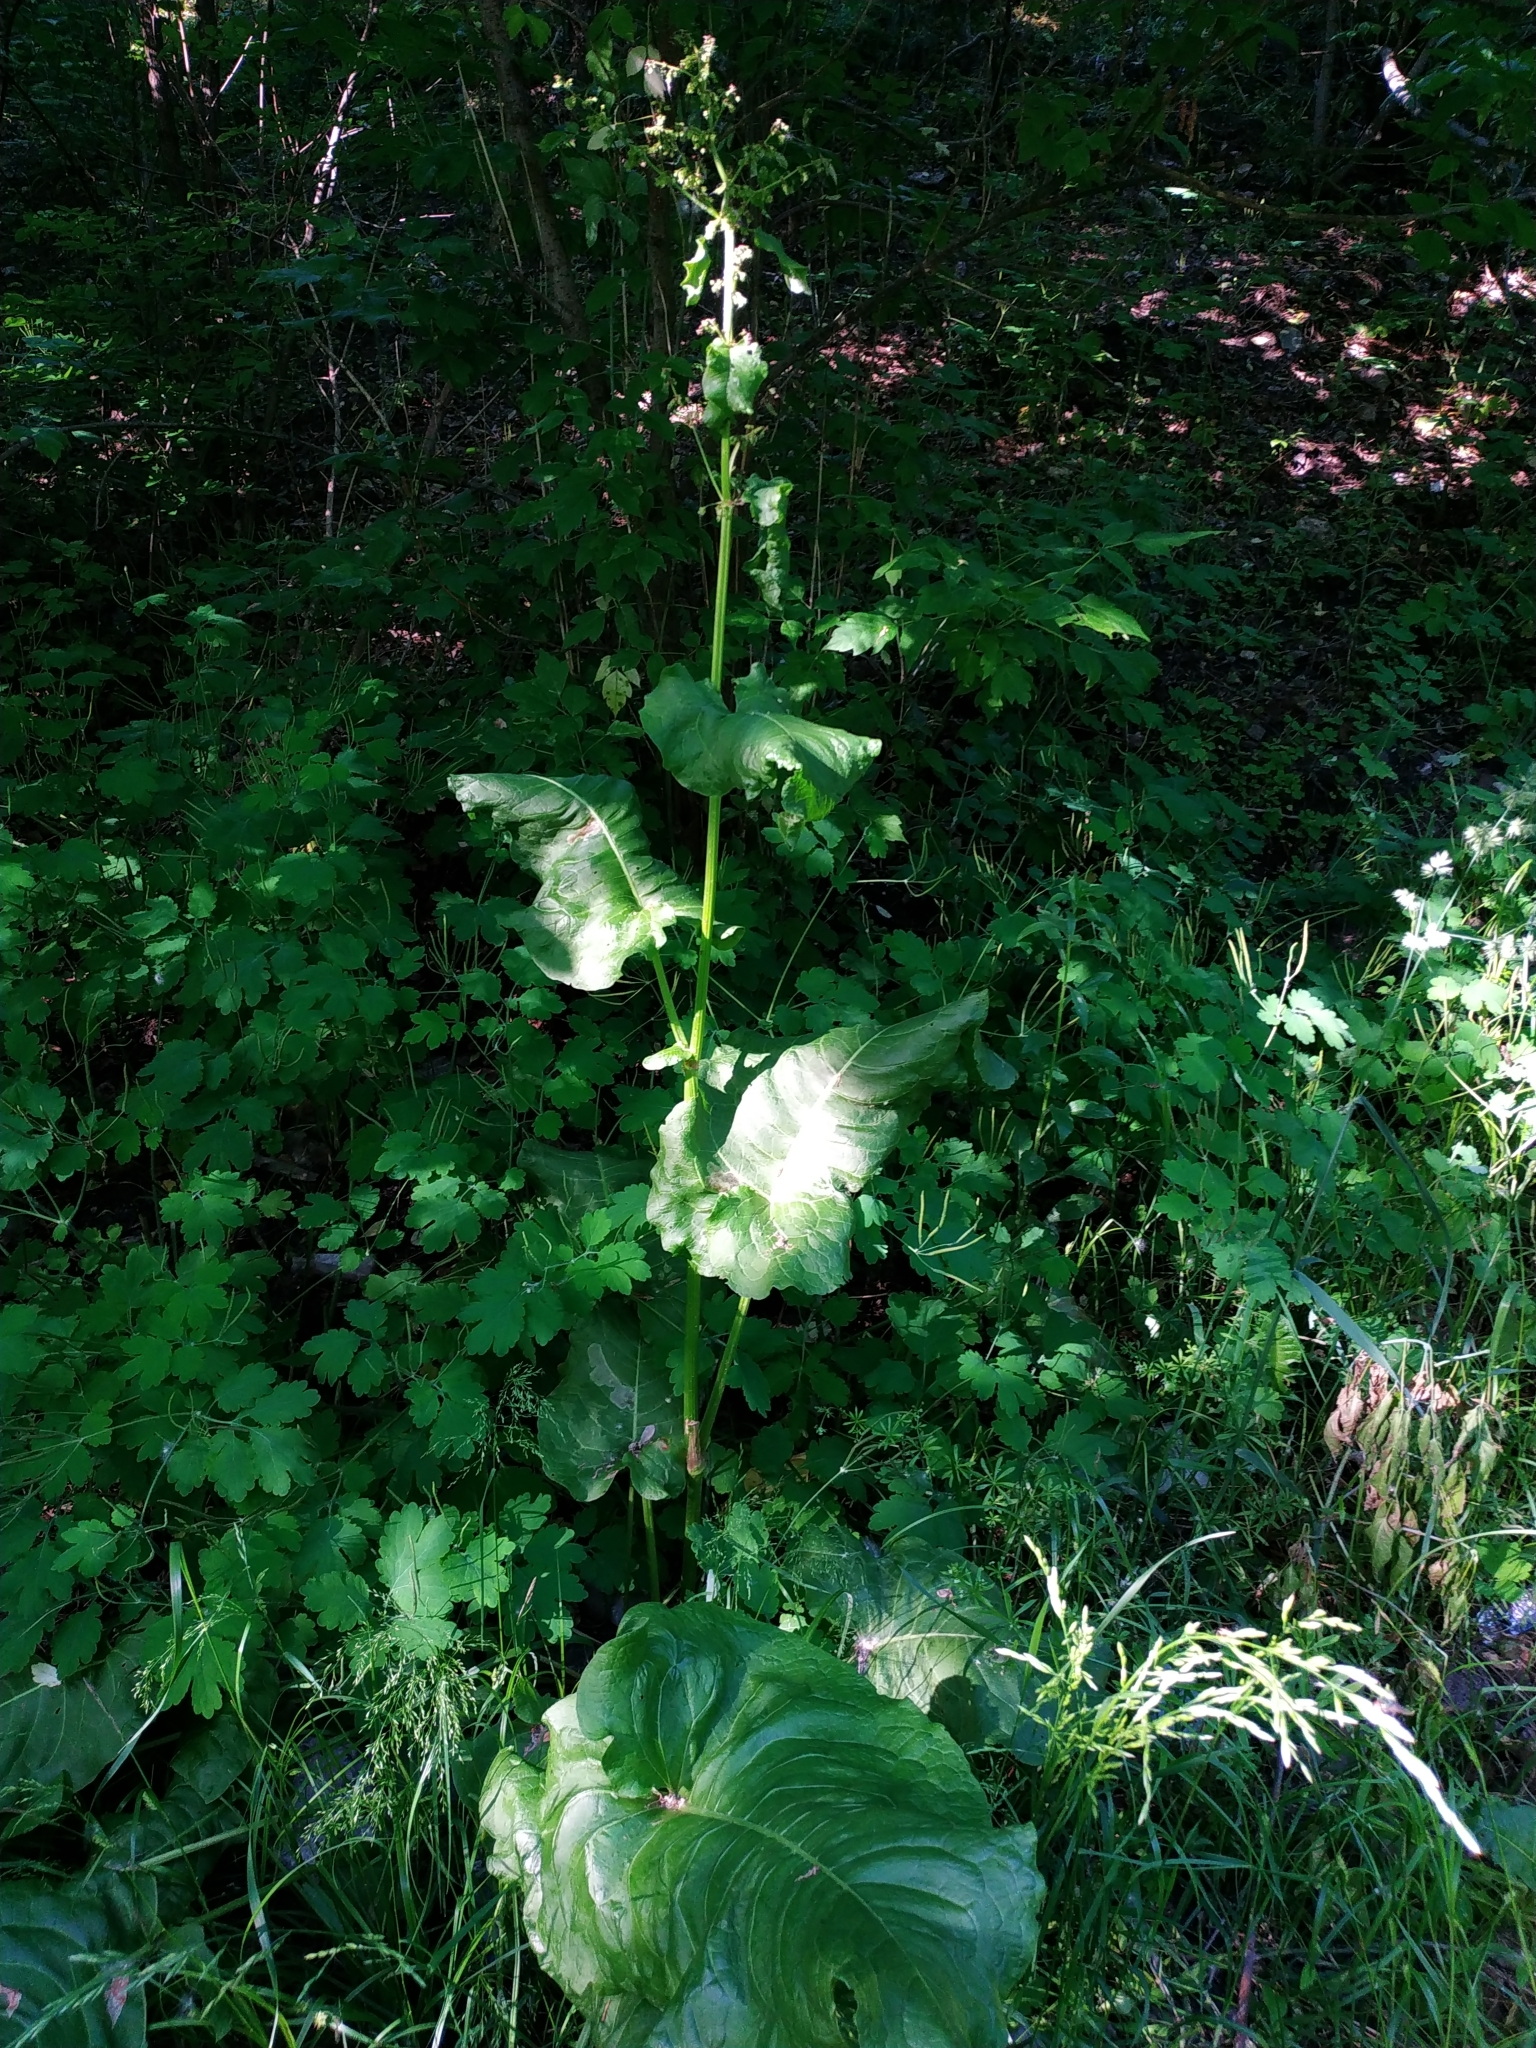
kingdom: Plantae
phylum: Tracheophyta
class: Magnoliopsida
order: Caryophyllales
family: Polygonaceae
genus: Rumex
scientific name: Rumex confertus
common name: Russian dock
